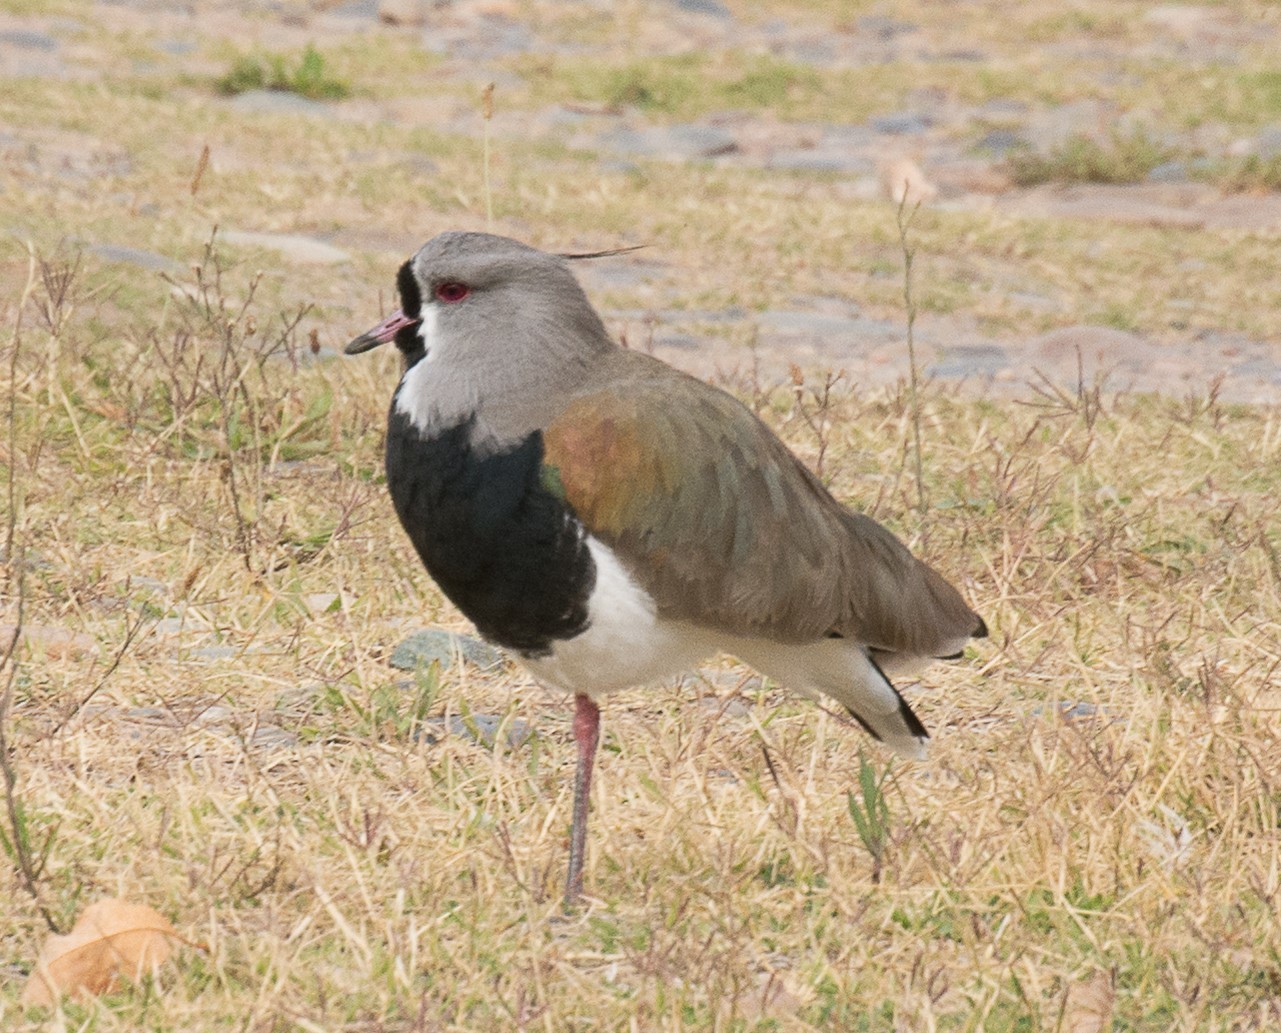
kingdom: Animalia
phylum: Chordata
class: Aves
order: Charadriiformes
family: Charadriidae
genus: Vanellus
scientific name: Vanellus chilensis
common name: Southern lapwing
